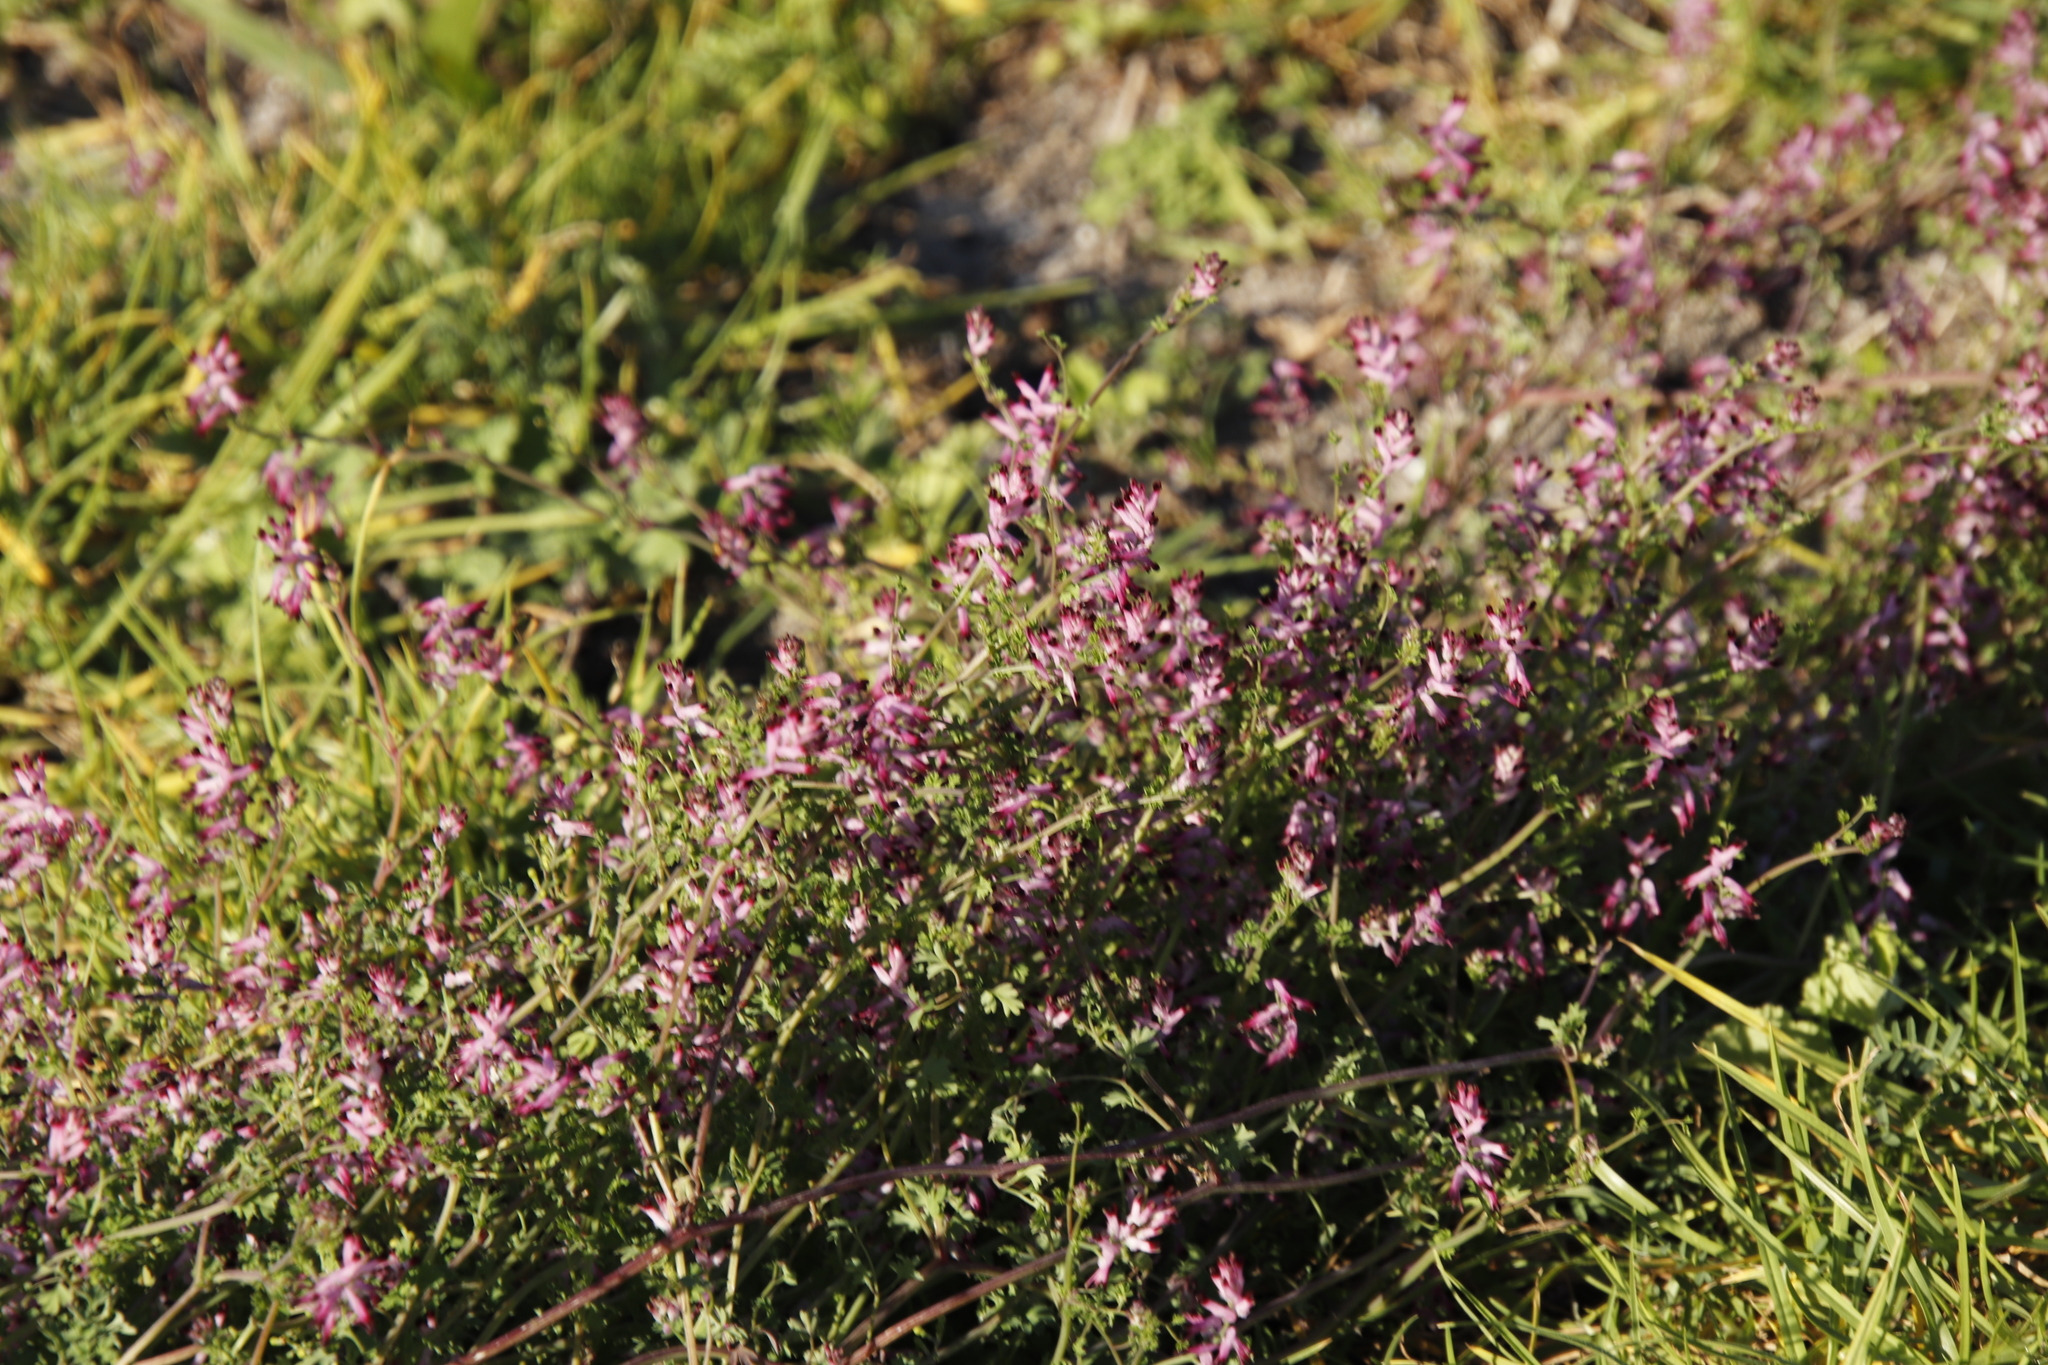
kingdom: Plantae
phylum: Tracheophyta
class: Magnoliopsida
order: Ranunculales
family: Papaveraceae
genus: Fumaria
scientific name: Fumaria muralis
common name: Common ramping-fumitory
